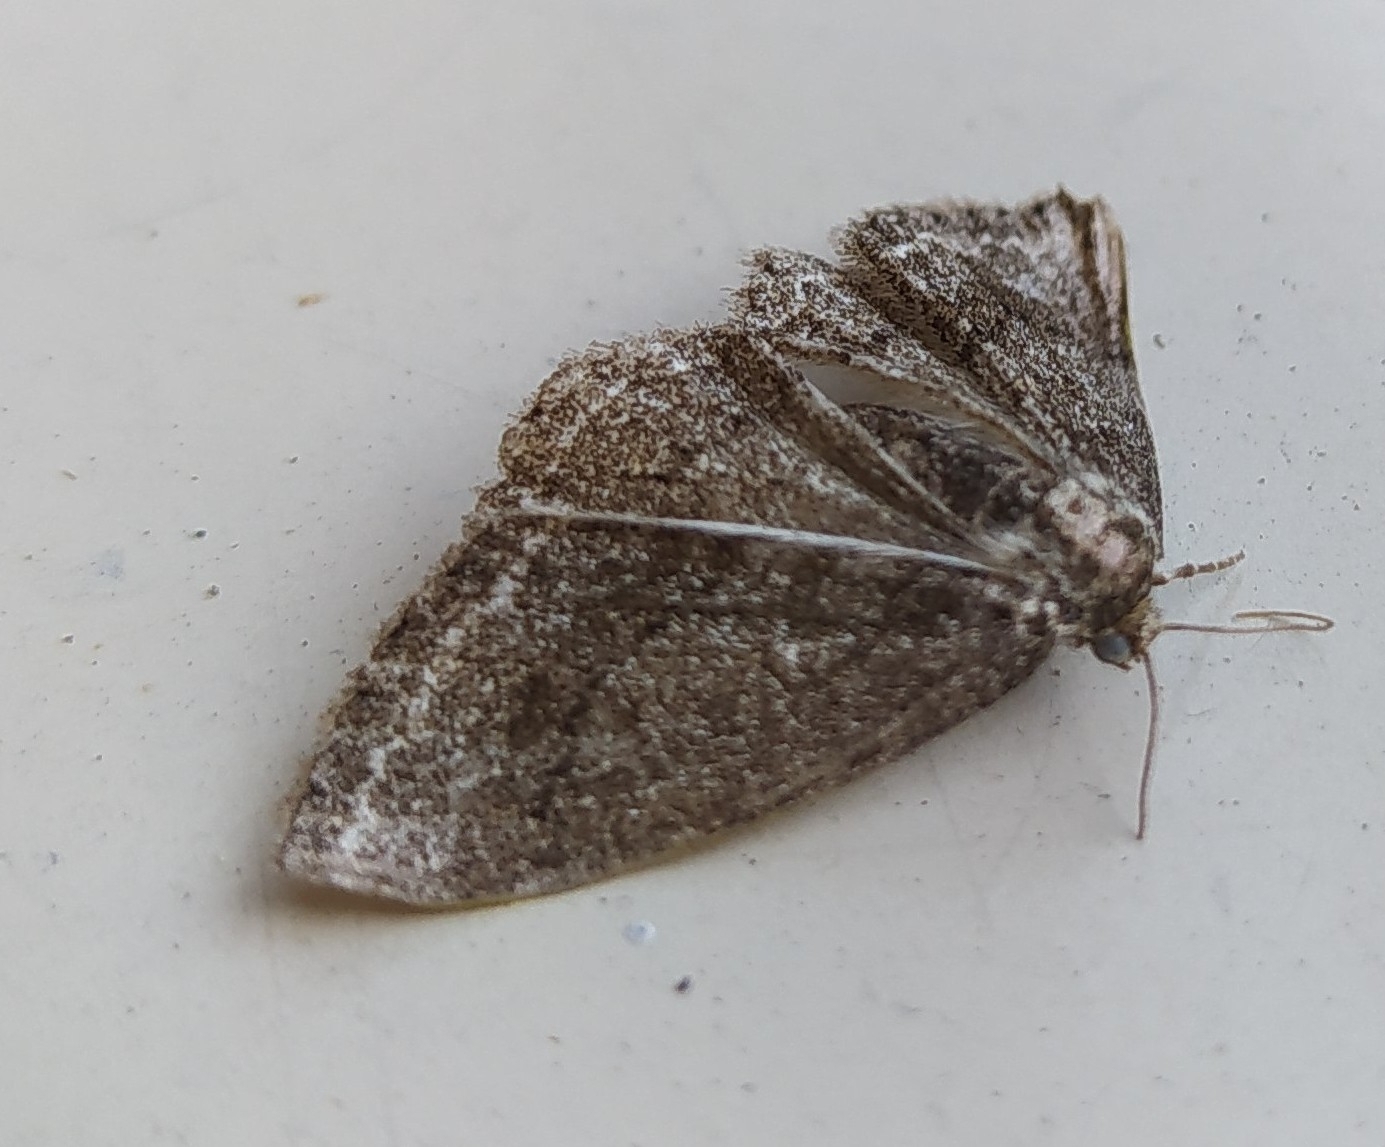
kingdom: Animalia
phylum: Arthropoda
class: Insecta
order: Lepidoptera
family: Geometridae
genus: Ectropis
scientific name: Ectropis crepuscularia
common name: Engrailed
